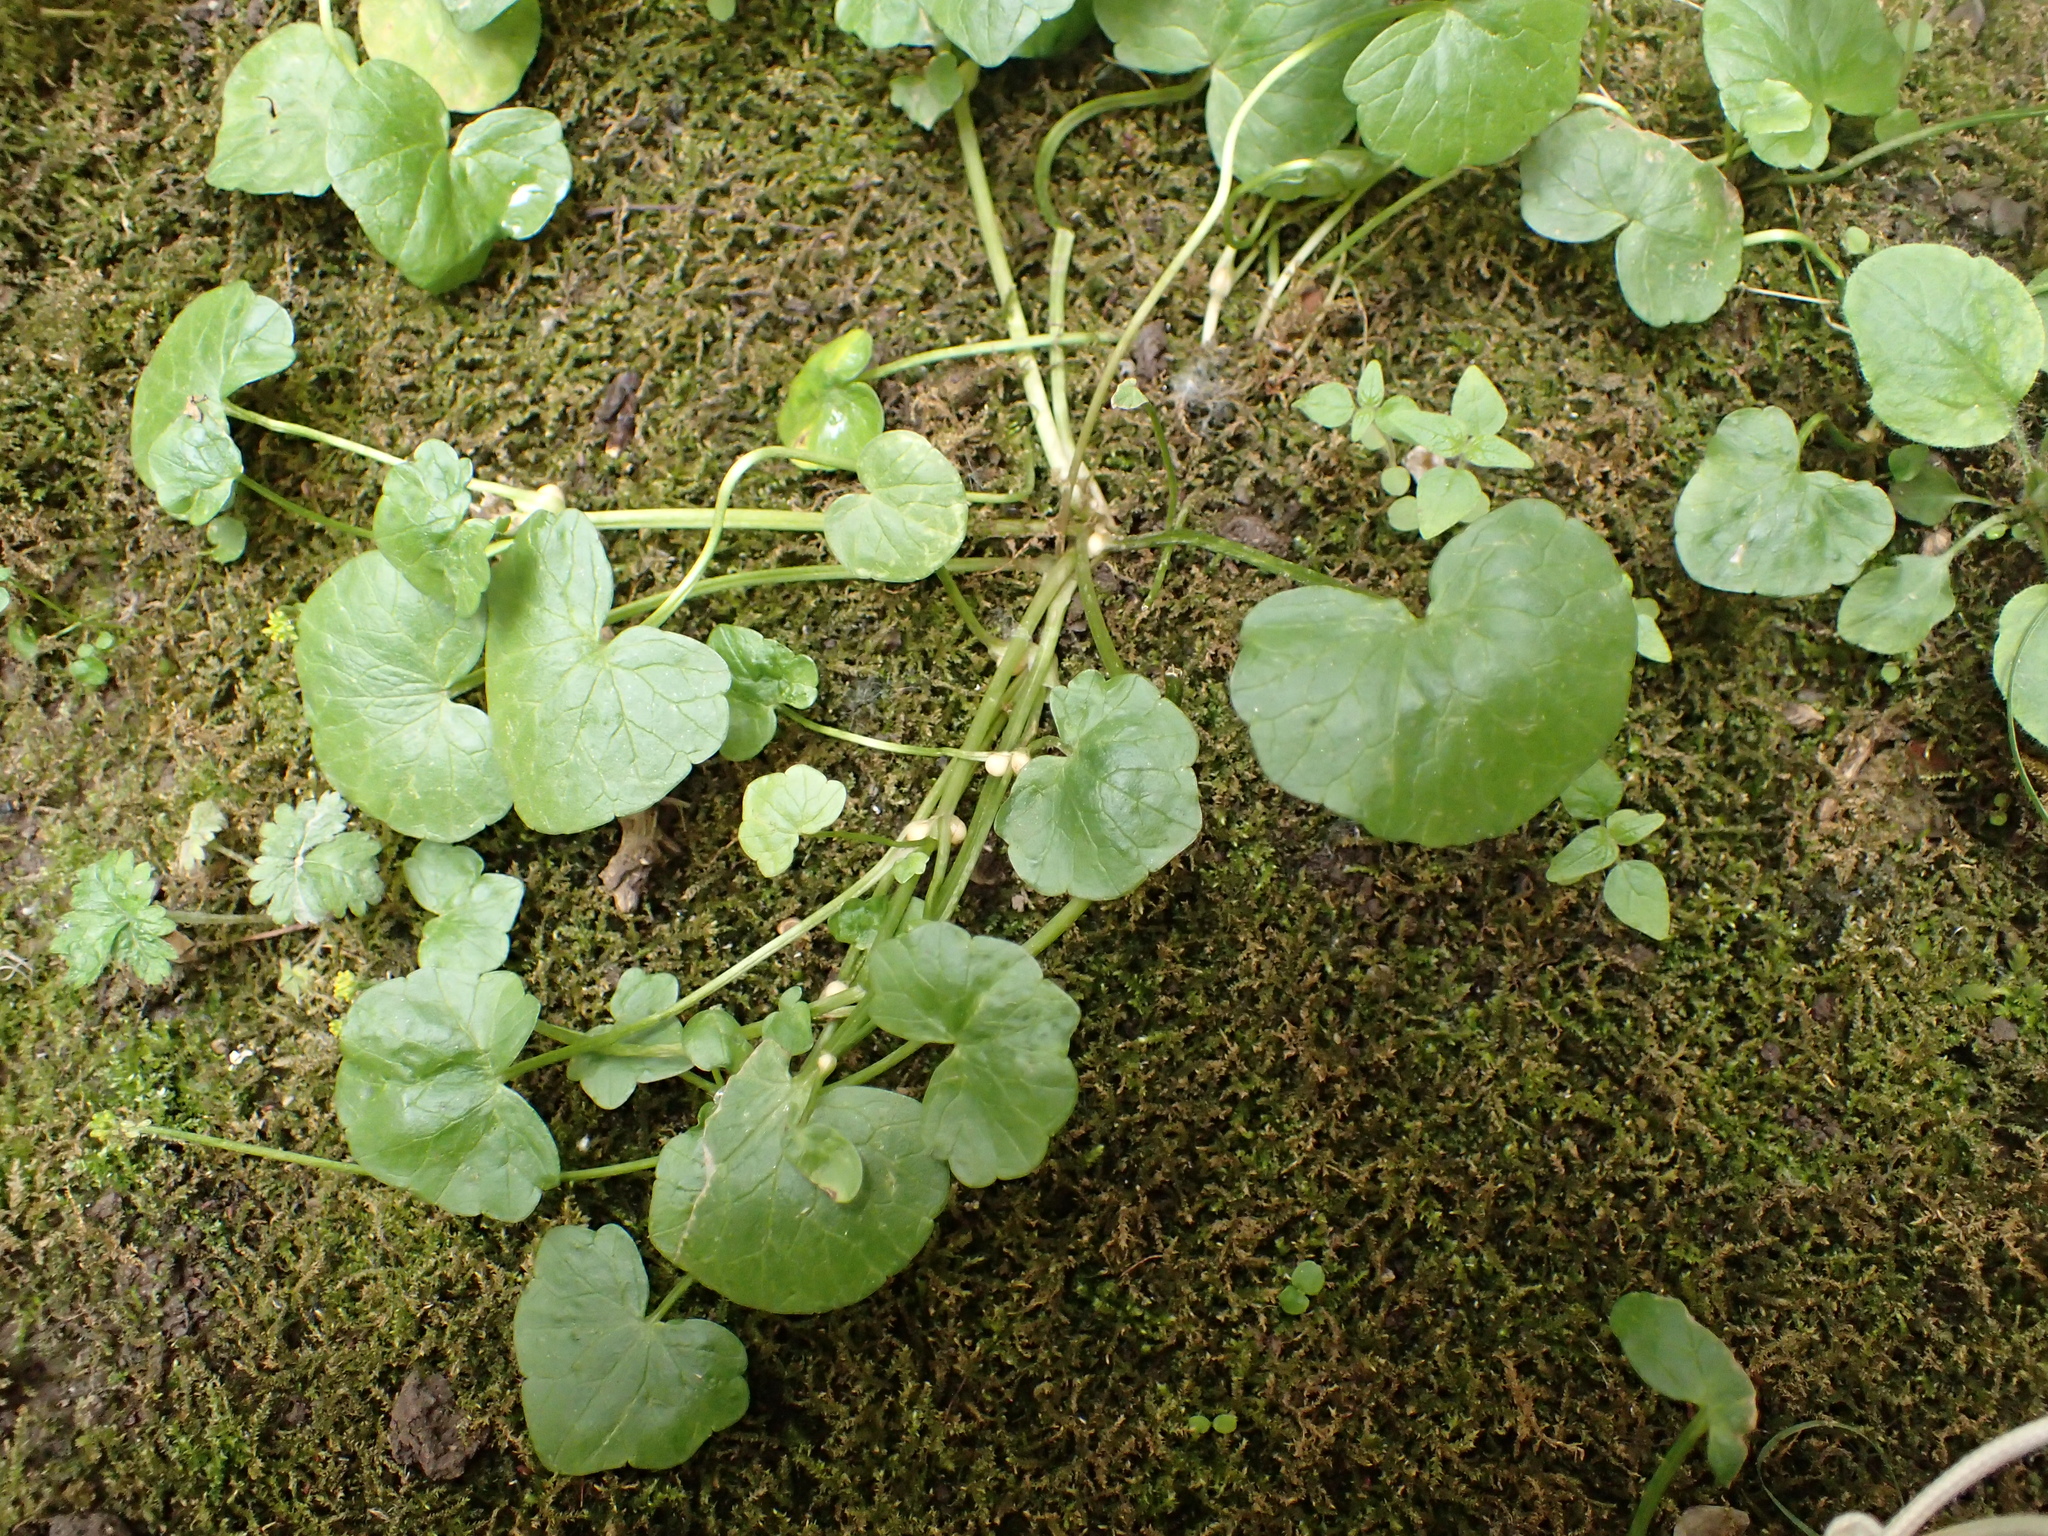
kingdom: Plantae
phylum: Tracheophyta
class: Magnoliopsida
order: Ranunculales
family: Ranunculaceae
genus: Ficaria
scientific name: Ficaria verna
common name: Lesser celandine
